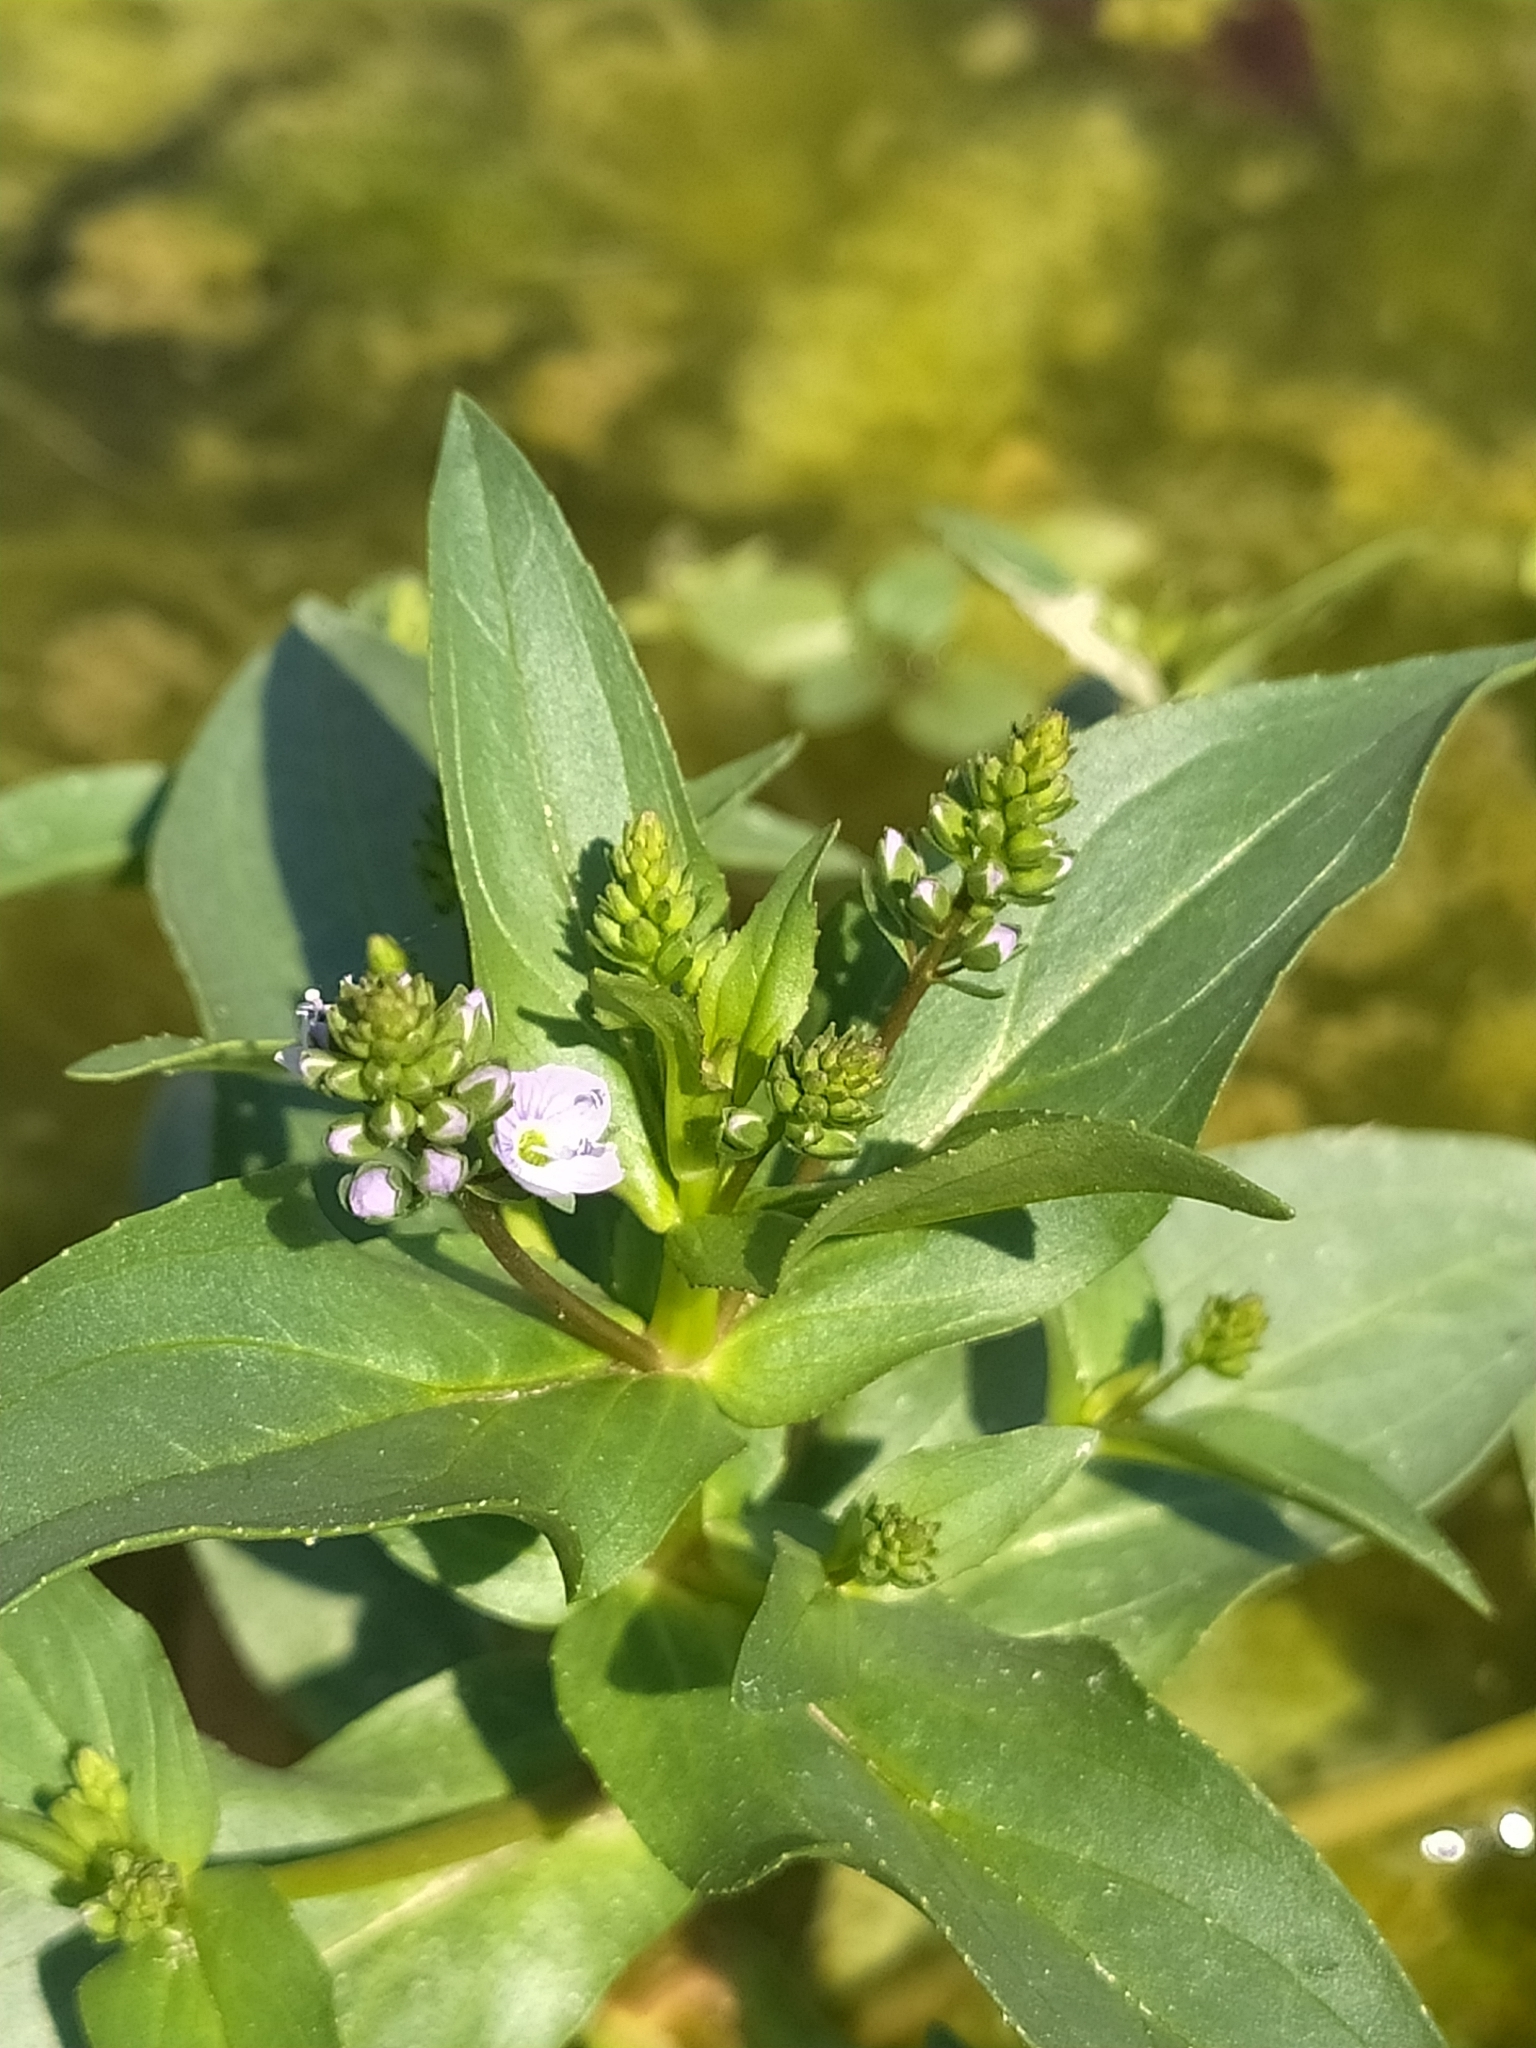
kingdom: Plantae
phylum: Tracheophyta
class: Magnoliopsida
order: Lamiales
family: Plantaginaceae
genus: Veronica
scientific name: Veronica anagallis-aquatica
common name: Water speedwell
